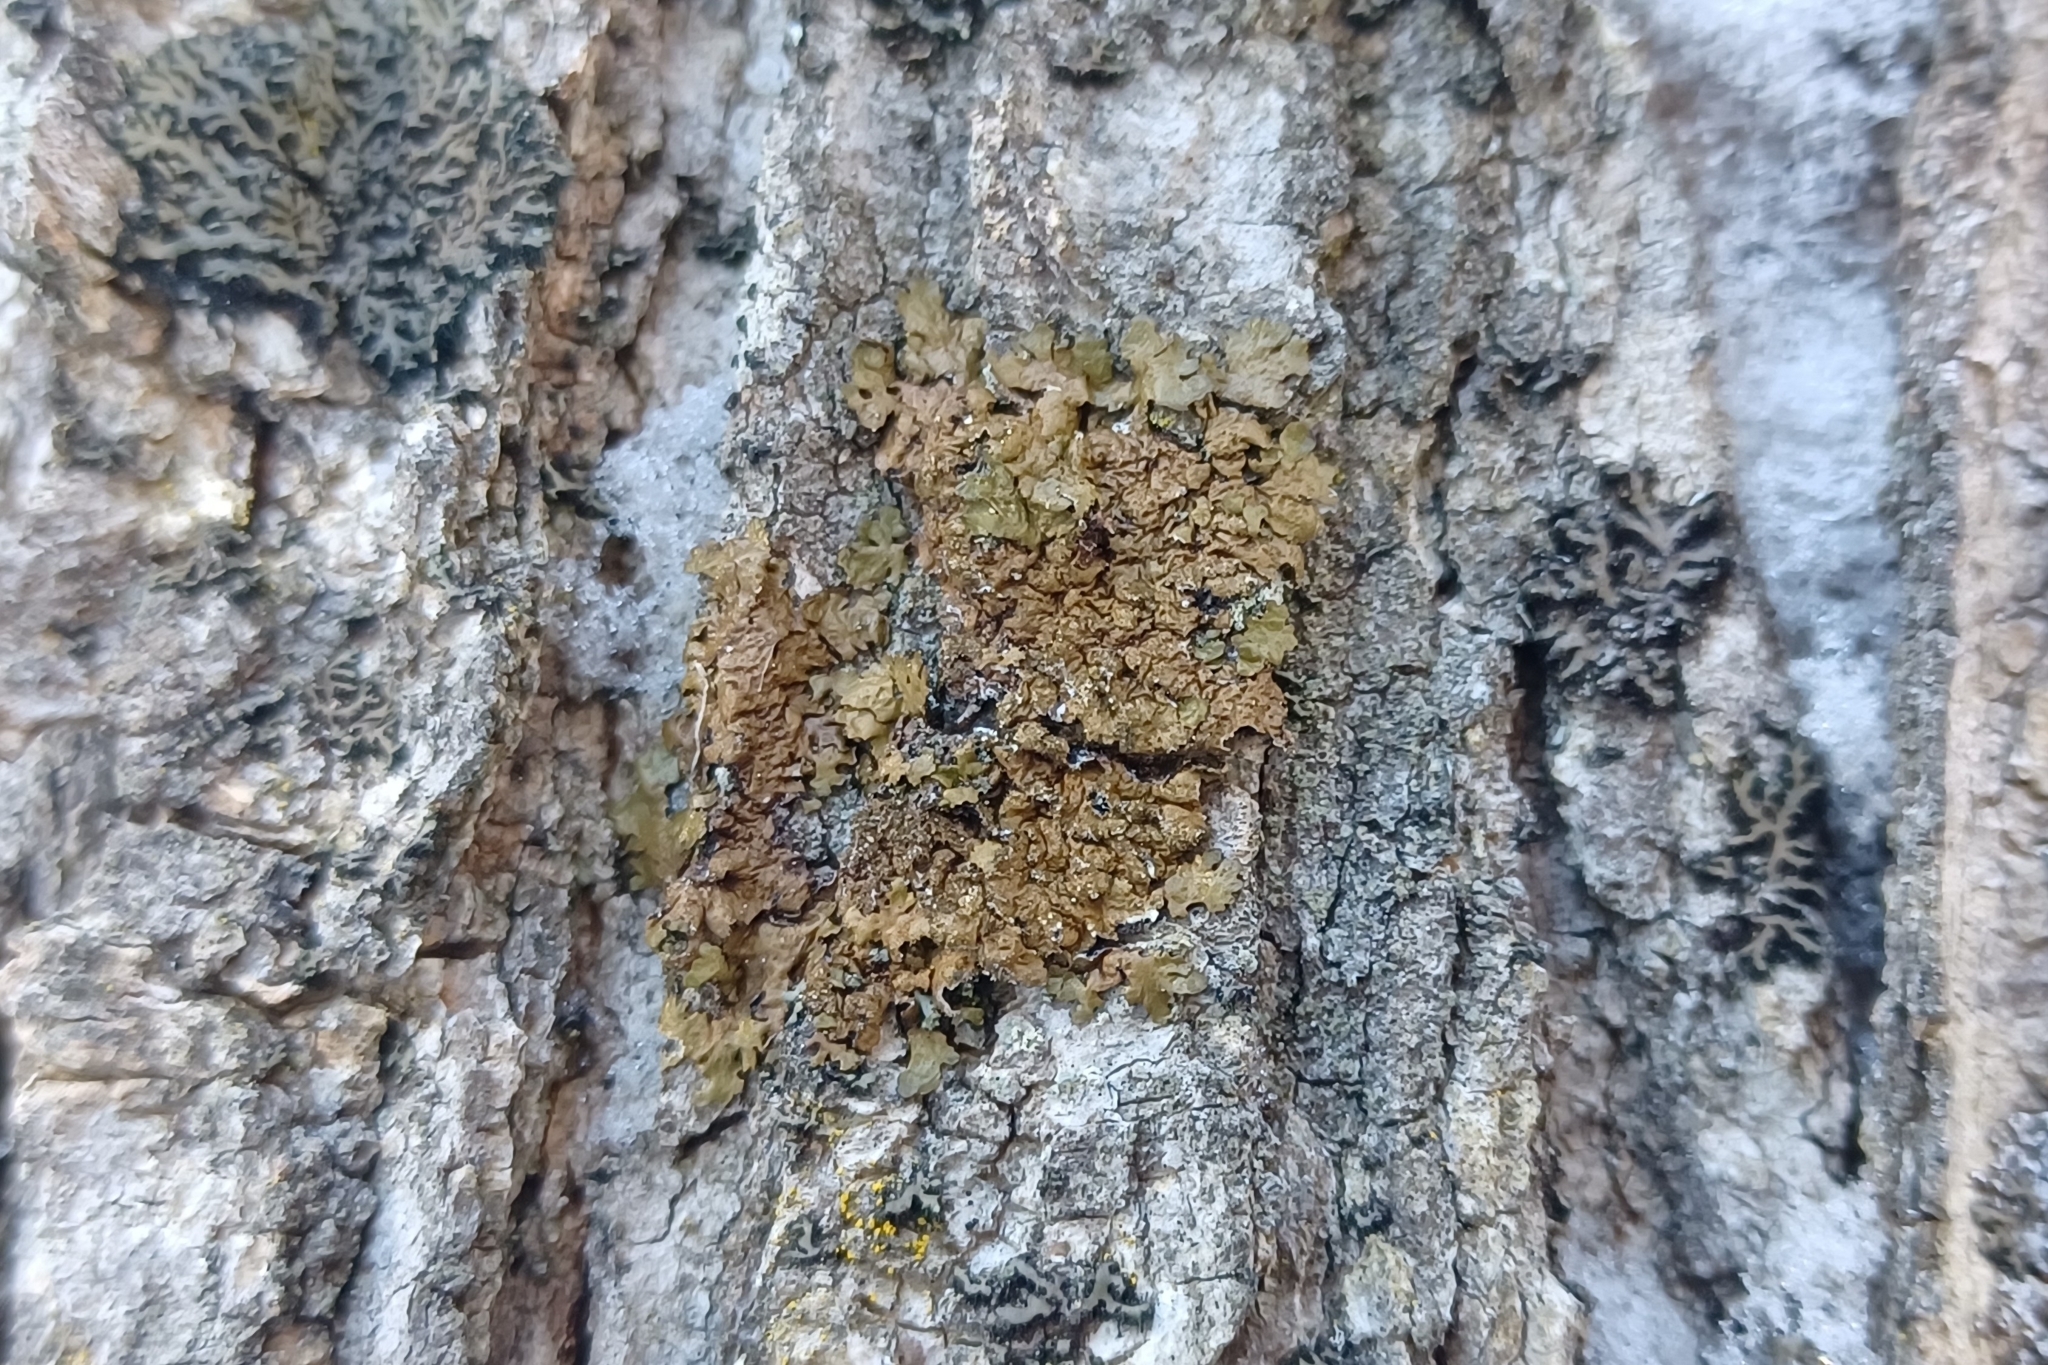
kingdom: Fungi
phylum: Ascomycota
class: Lecanoromycetes
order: Lecanorales
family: Parmeliaceae
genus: Melanelixia
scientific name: Melanelixia subaurifera
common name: Abraded camouflage lichen
